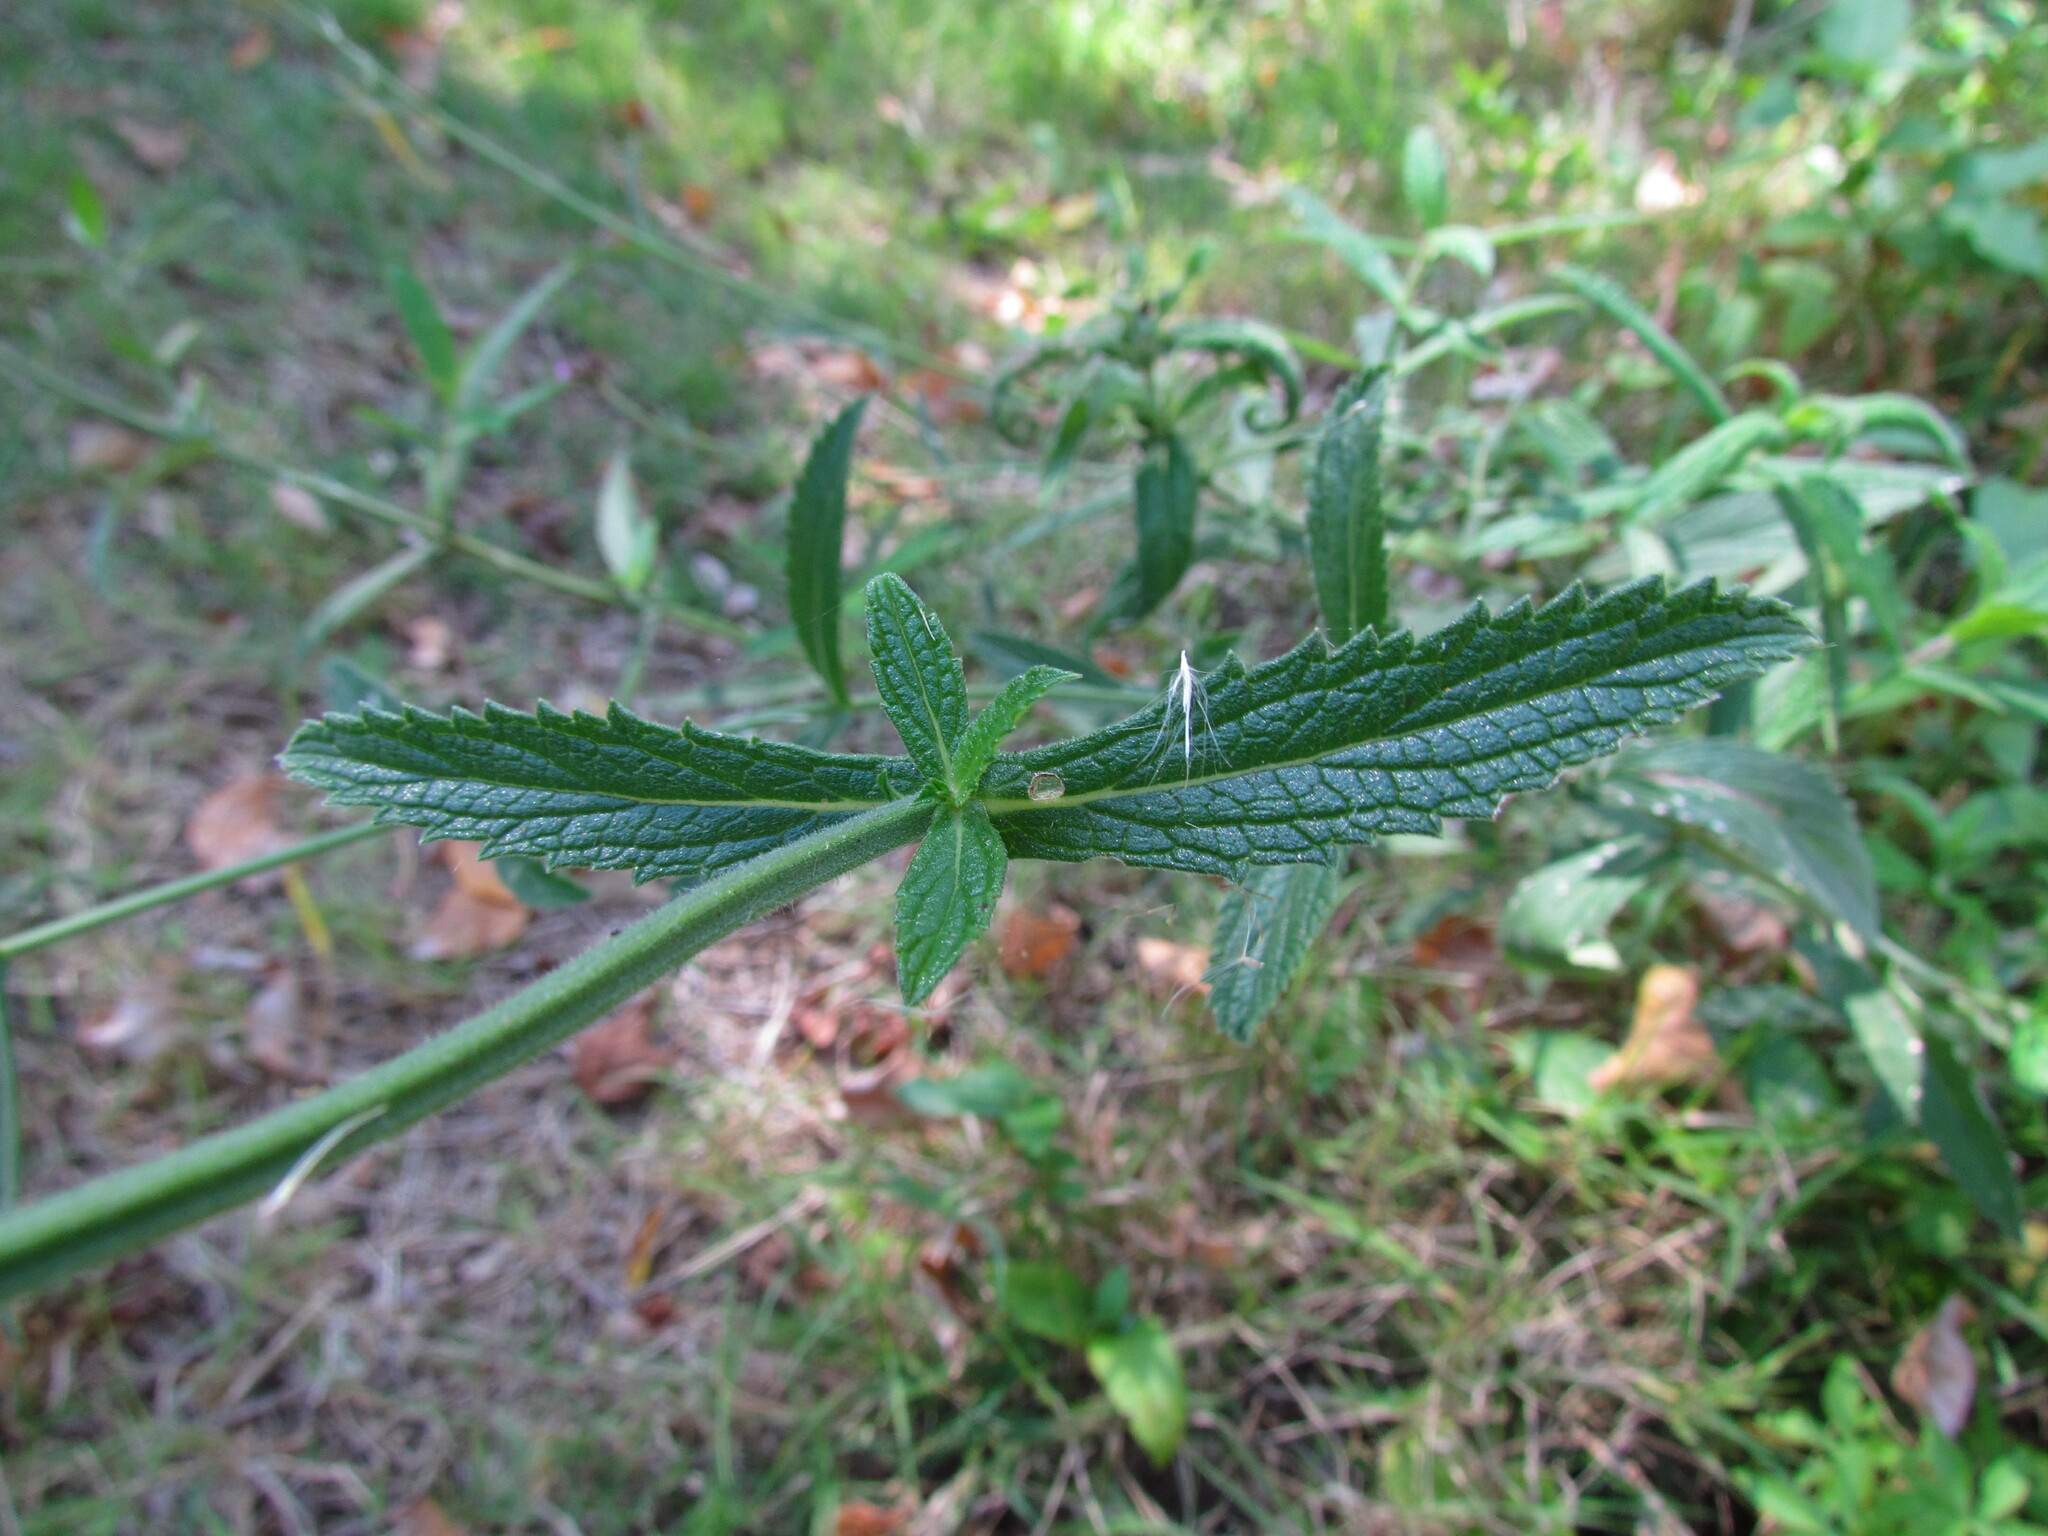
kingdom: Plantae
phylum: Tracheophyta
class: Magnoliopsida
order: Lamiales
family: Verbenaceae
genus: Verbena
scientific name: Verbena bonariensis
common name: Purpletop vervain
